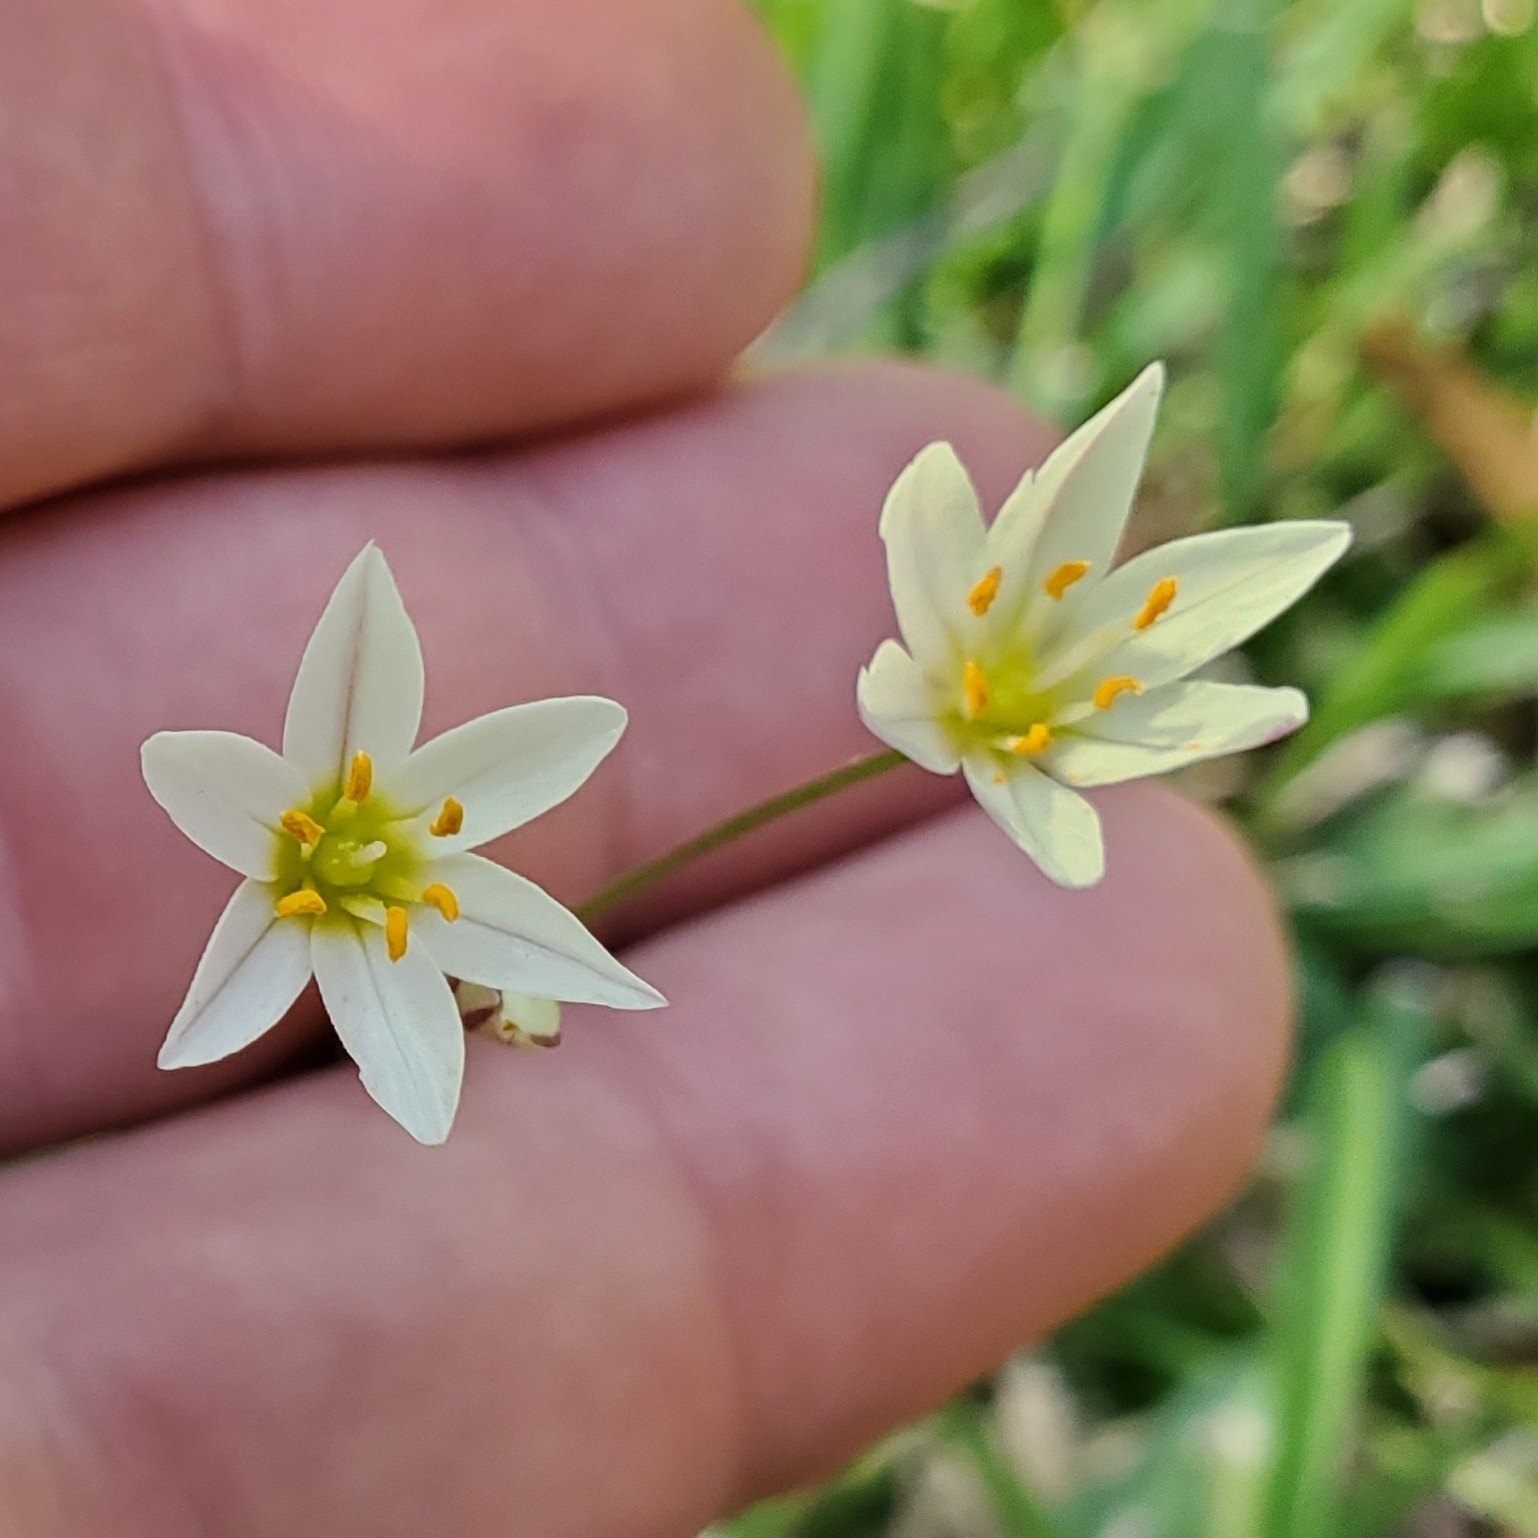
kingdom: Plantae
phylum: Tracheophyta
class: Liliopsida
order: Asparagales
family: Amaryllidaceae
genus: Nothoscordum
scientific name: Nothoscordum bivalve
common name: Crow-poison
